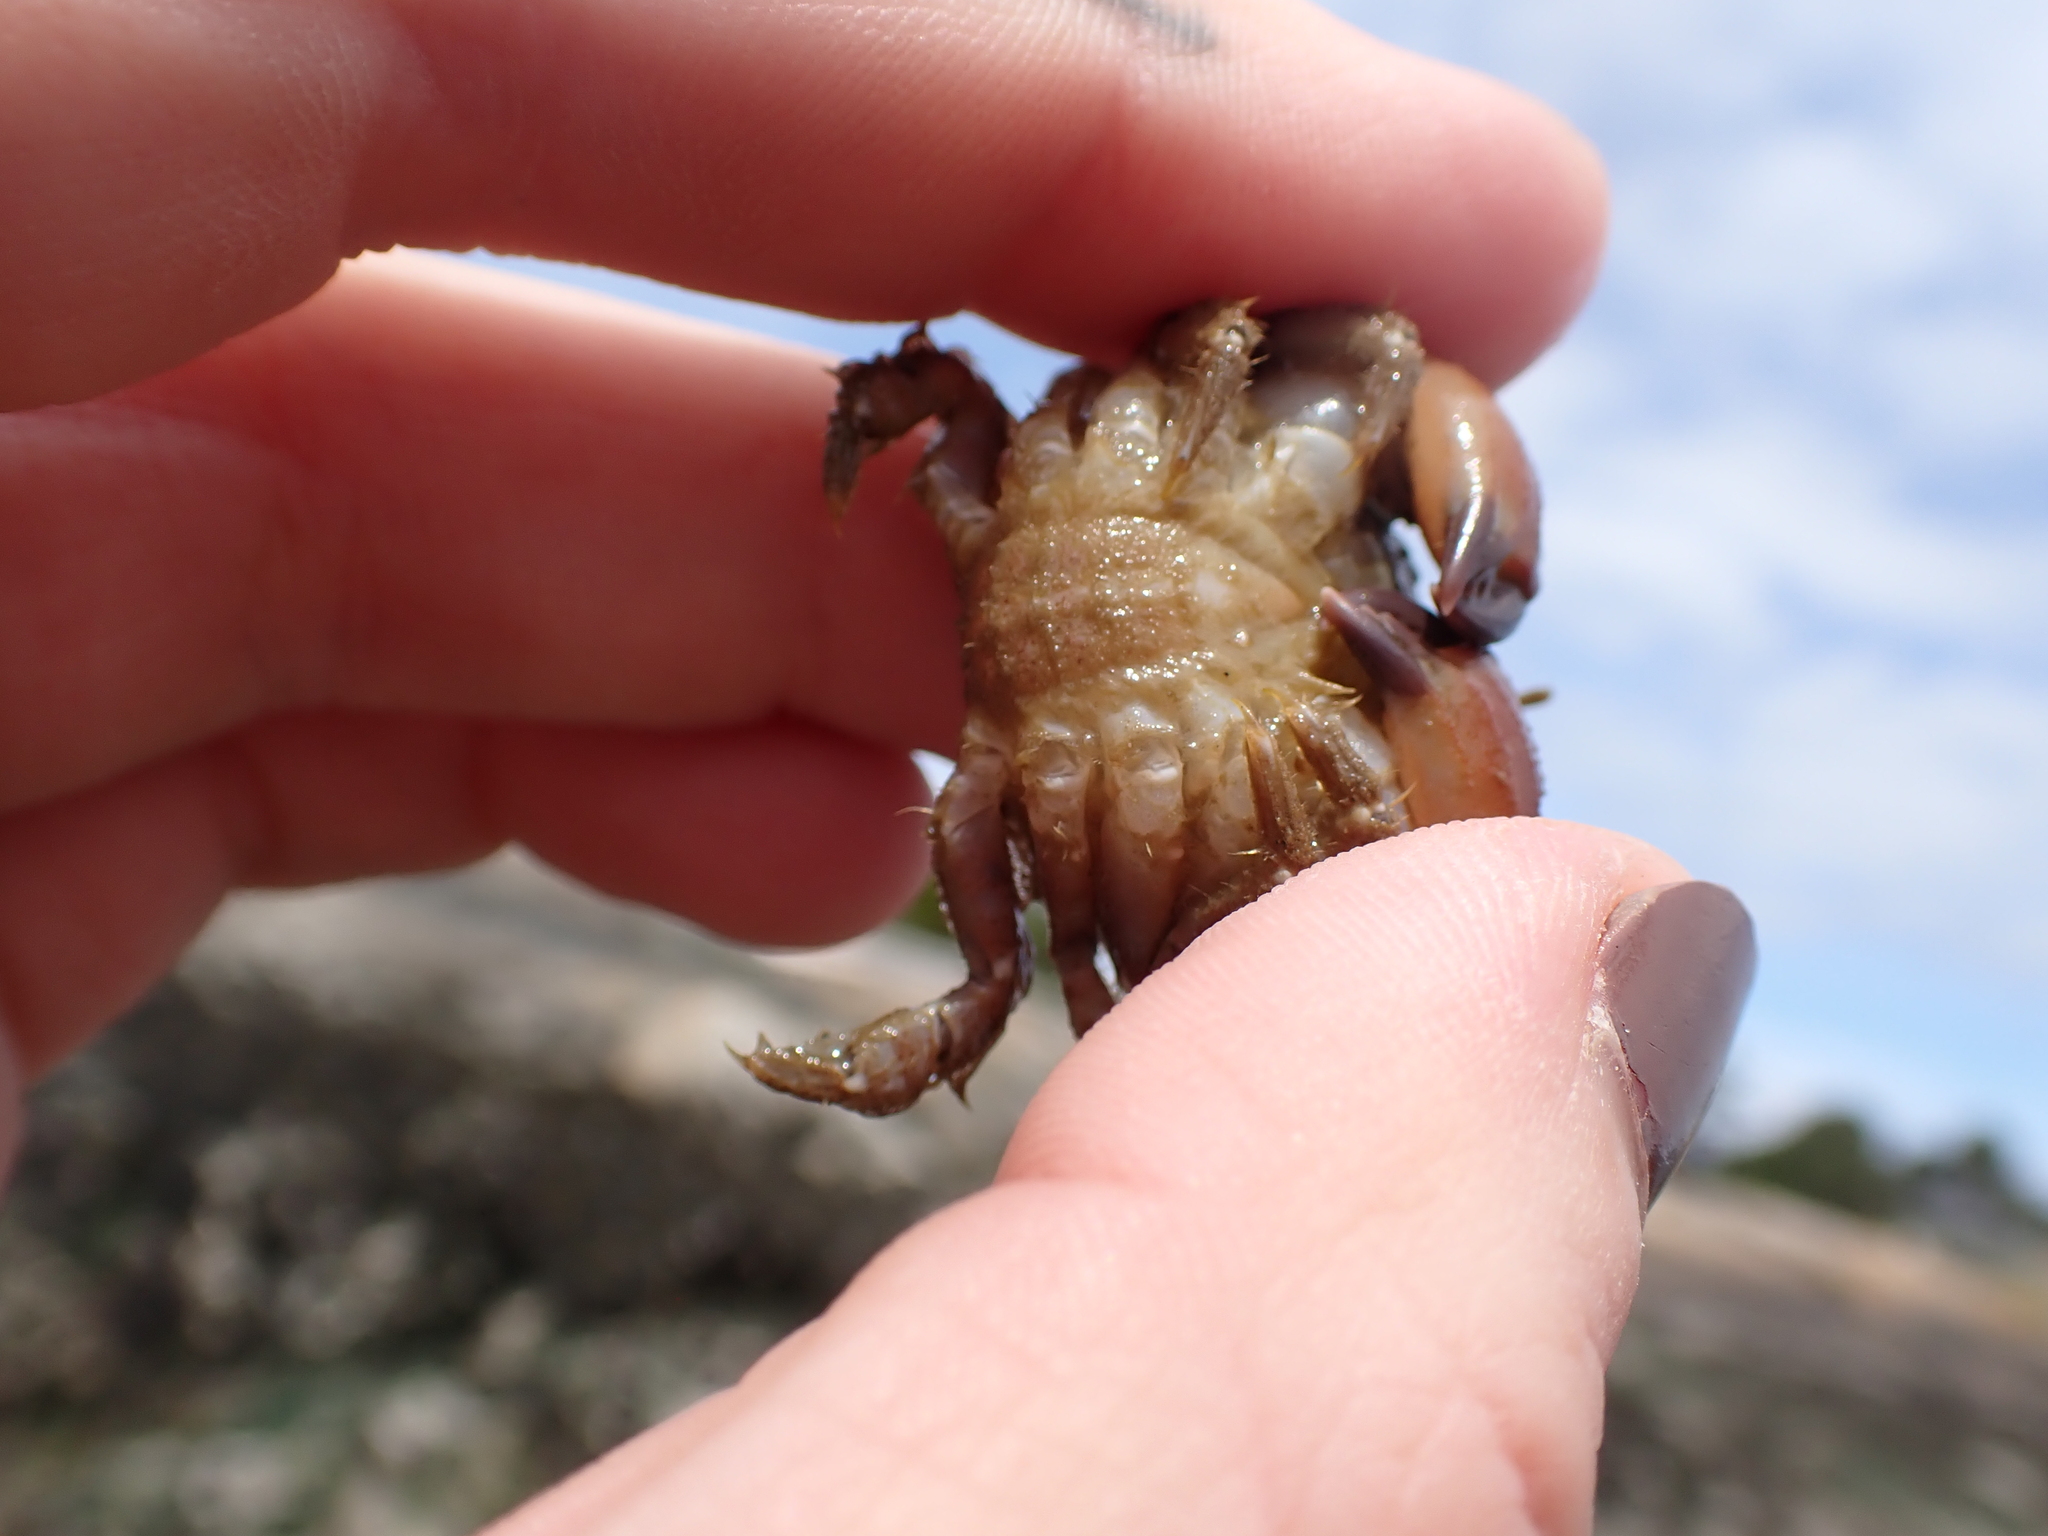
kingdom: Animalia
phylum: Arthropoda
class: Malacostraca
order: Decapoda
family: Cancridae
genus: Glebocarcinus
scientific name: Glebocarcinus oregonensis
